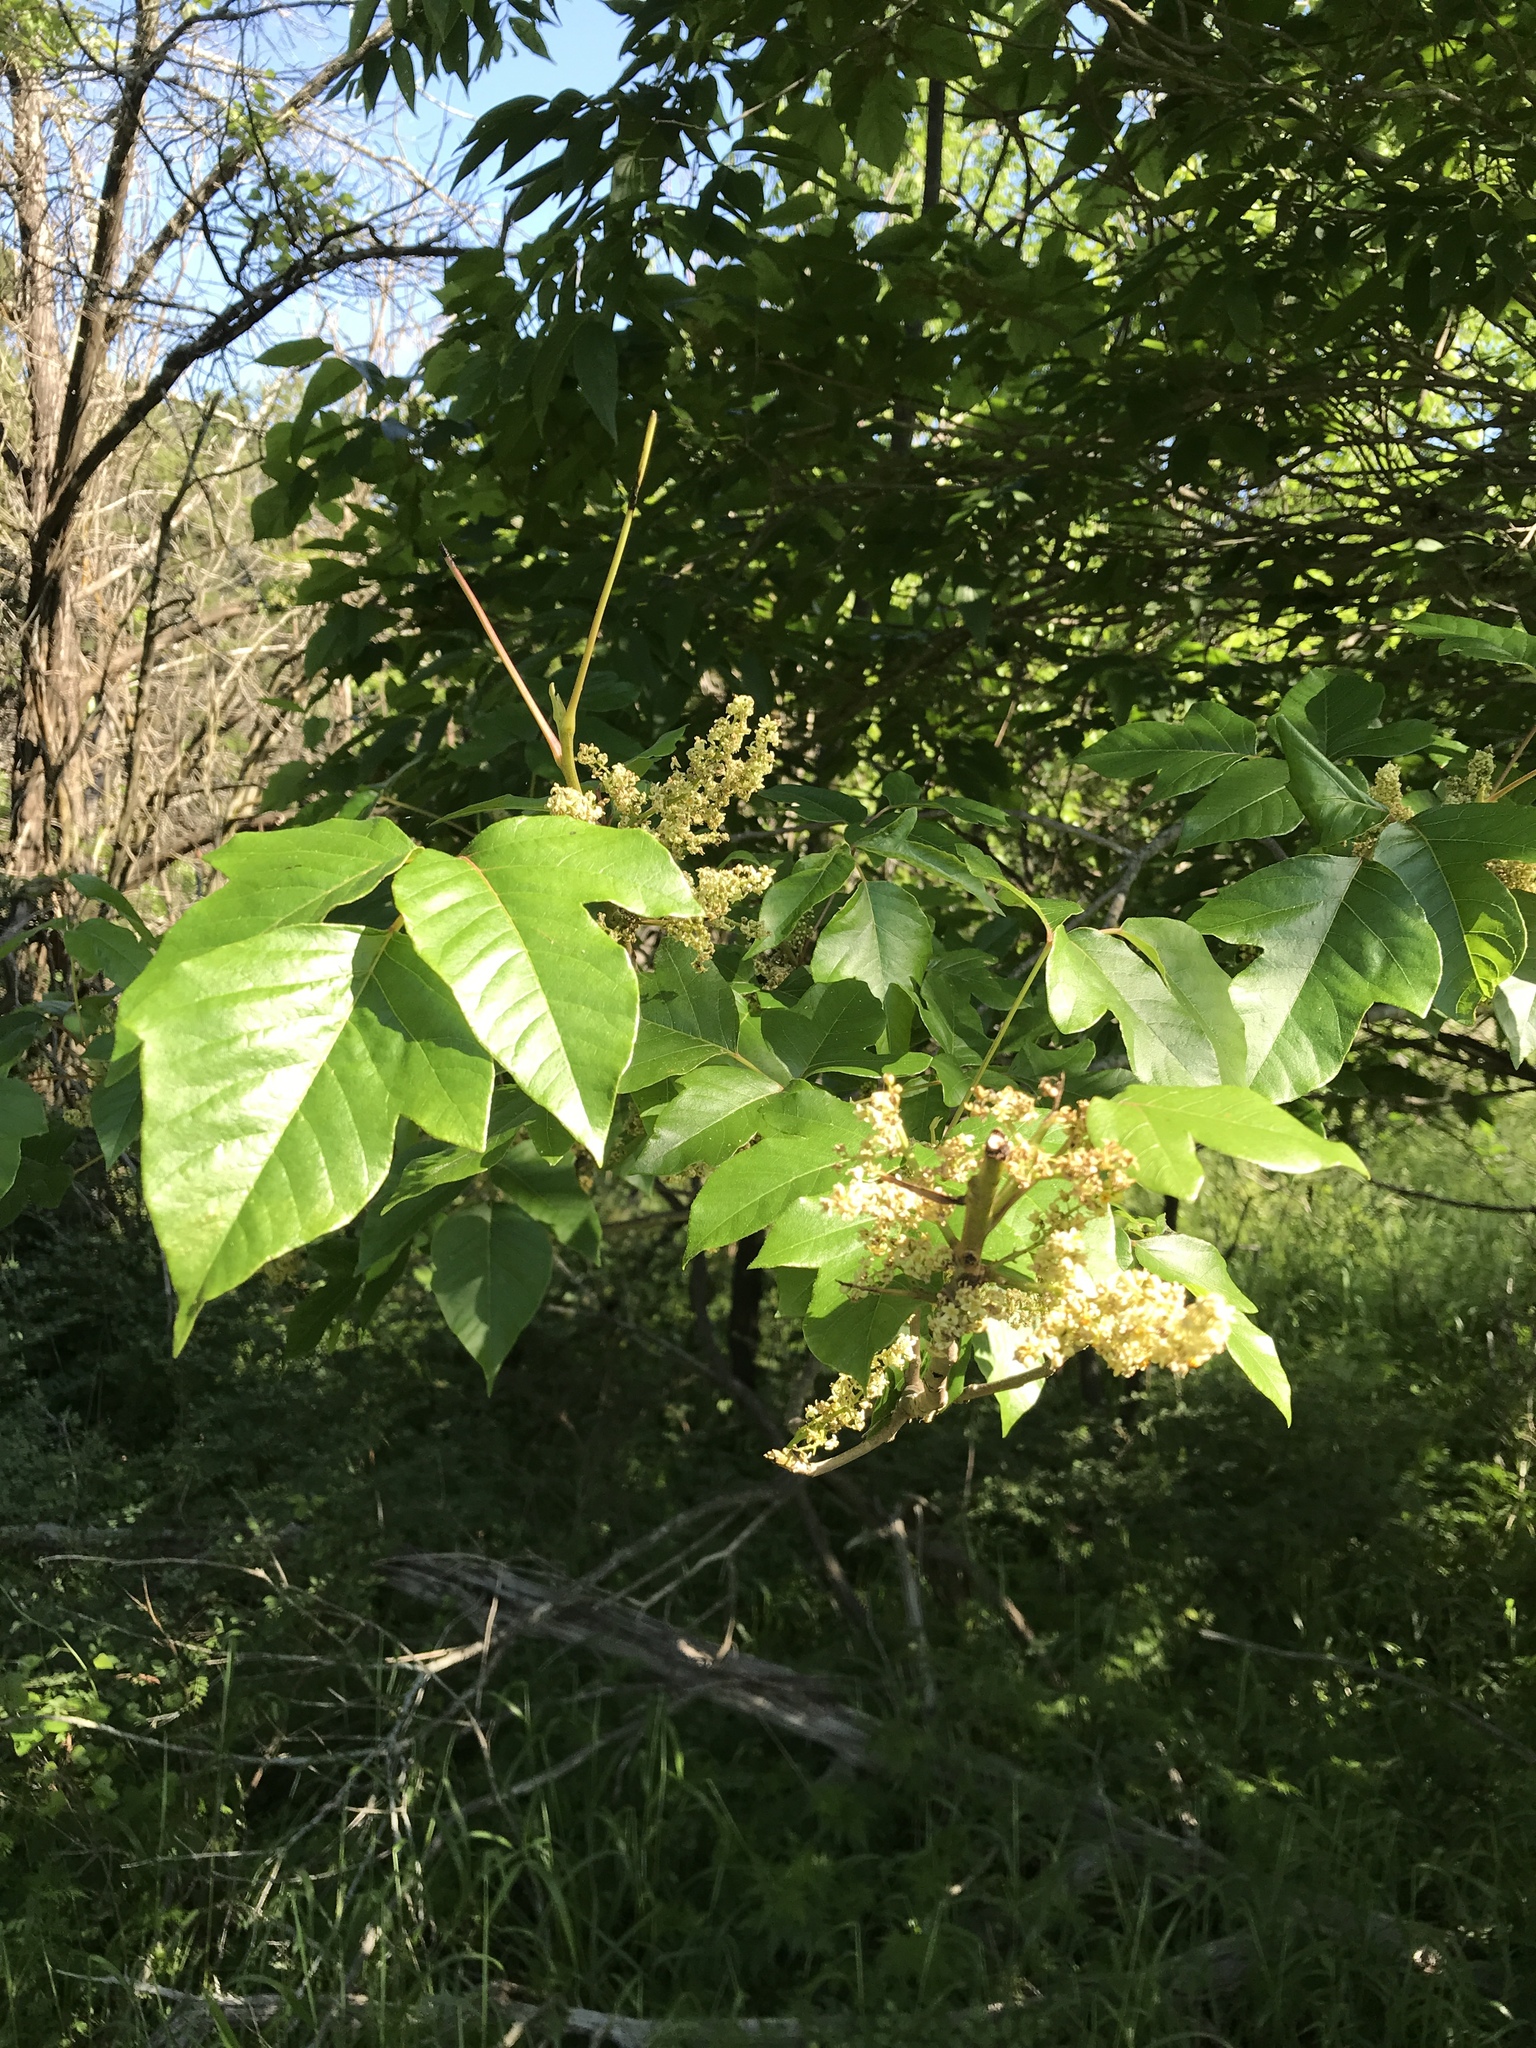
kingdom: Plantae
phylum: Tracheophyta
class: Magnoliopsida
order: Sapindales
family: Anacardiaceae
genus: Toxicodendron
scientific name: Toxicodendron radicans
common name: Poison ivy
